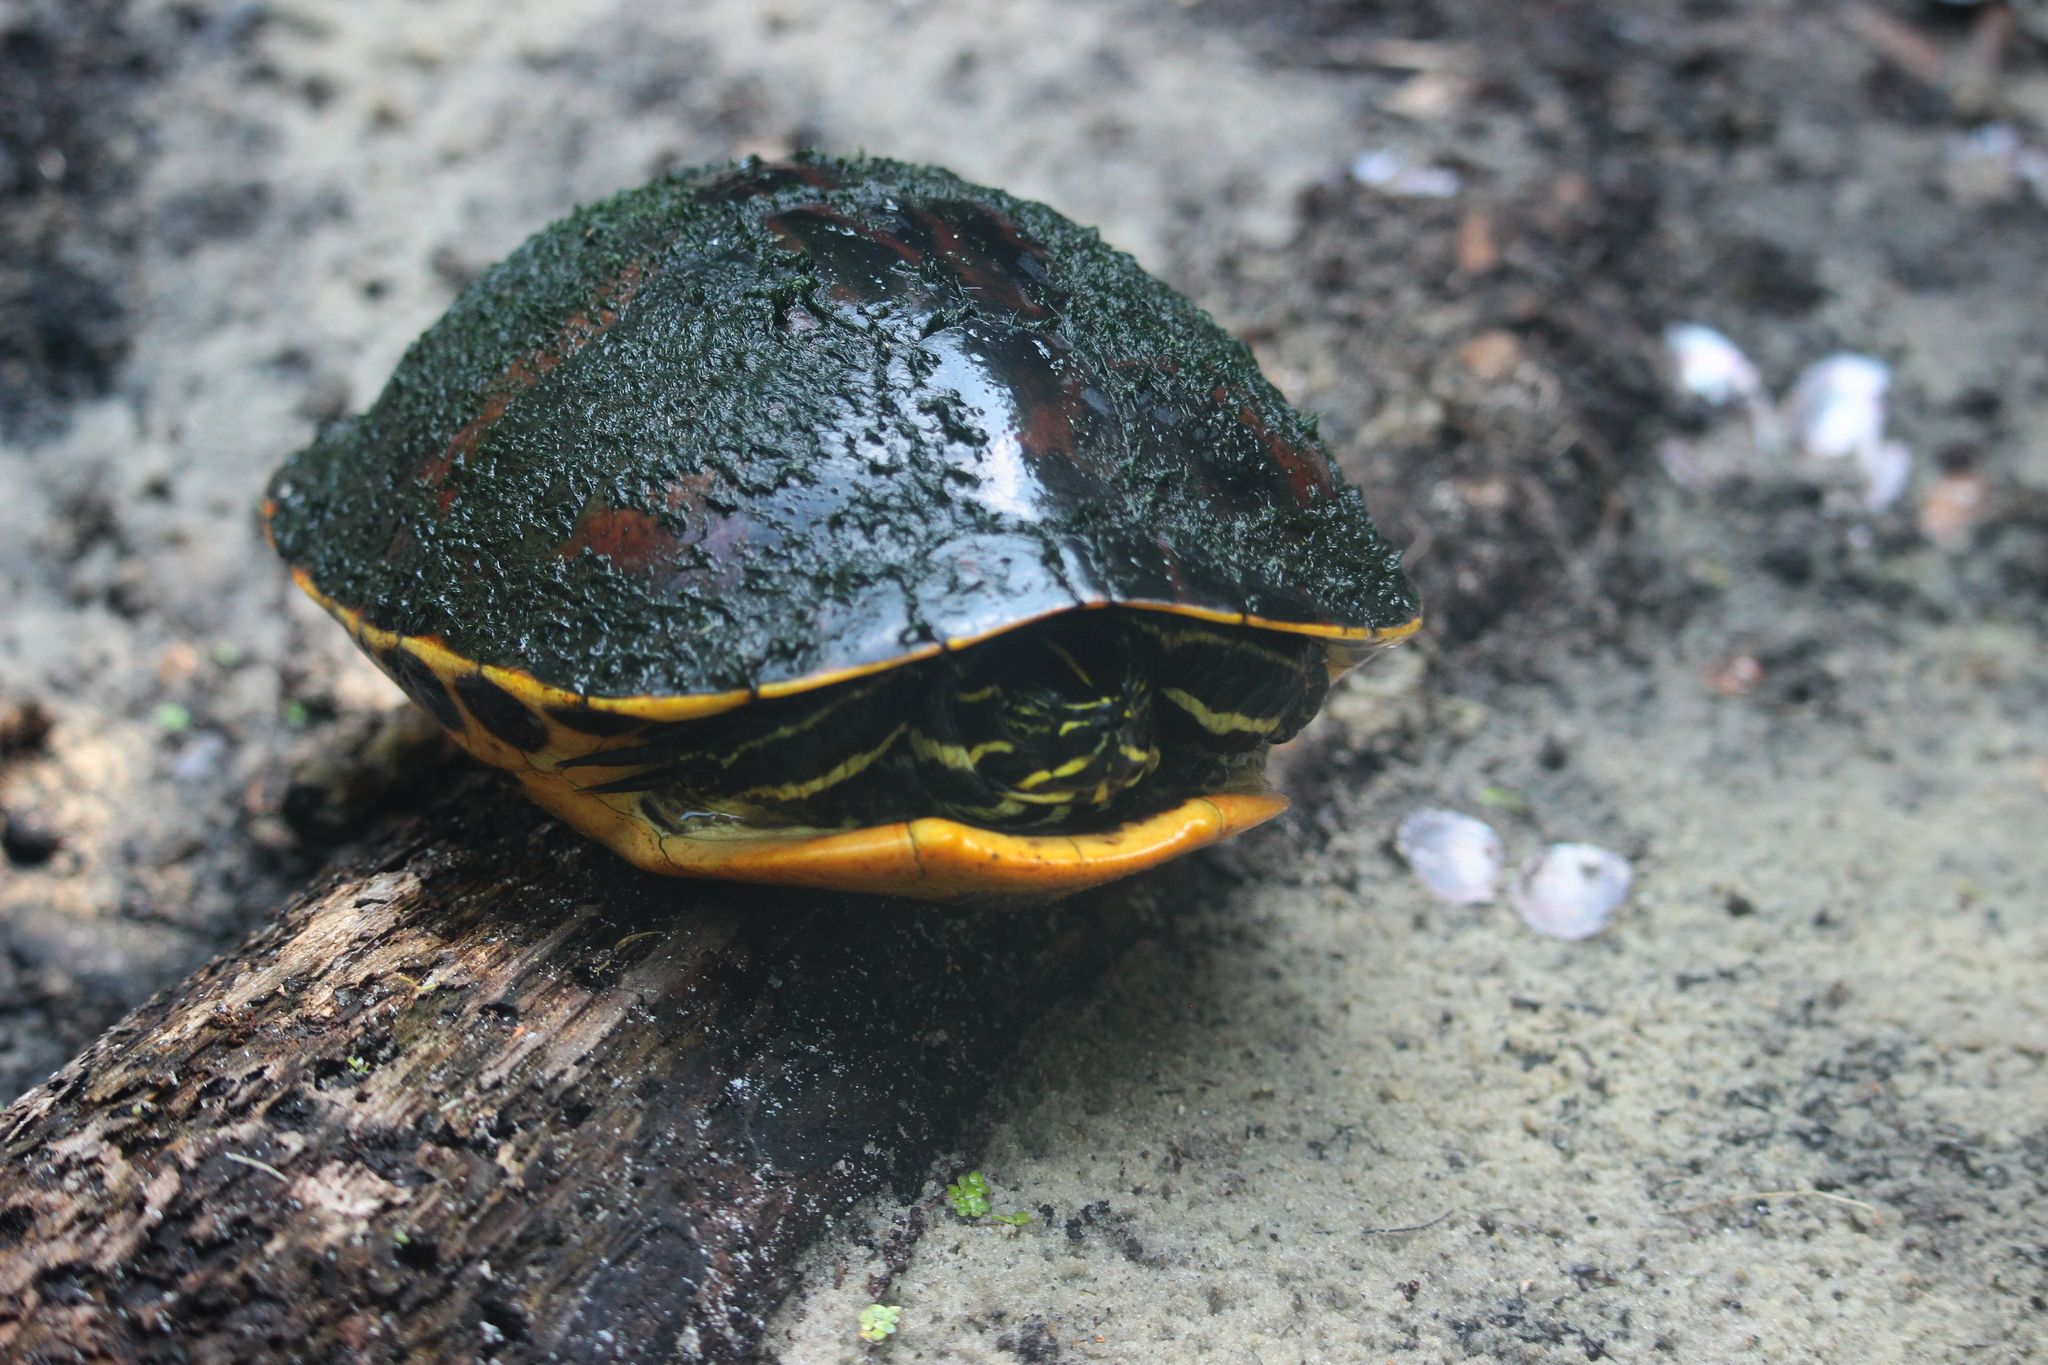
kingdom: Animalia
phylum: Chordata
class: Testudines
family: Emydidae
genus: Pseudemys
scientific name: Pseudemys nelsoni
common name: Florida red-bellied turtle
